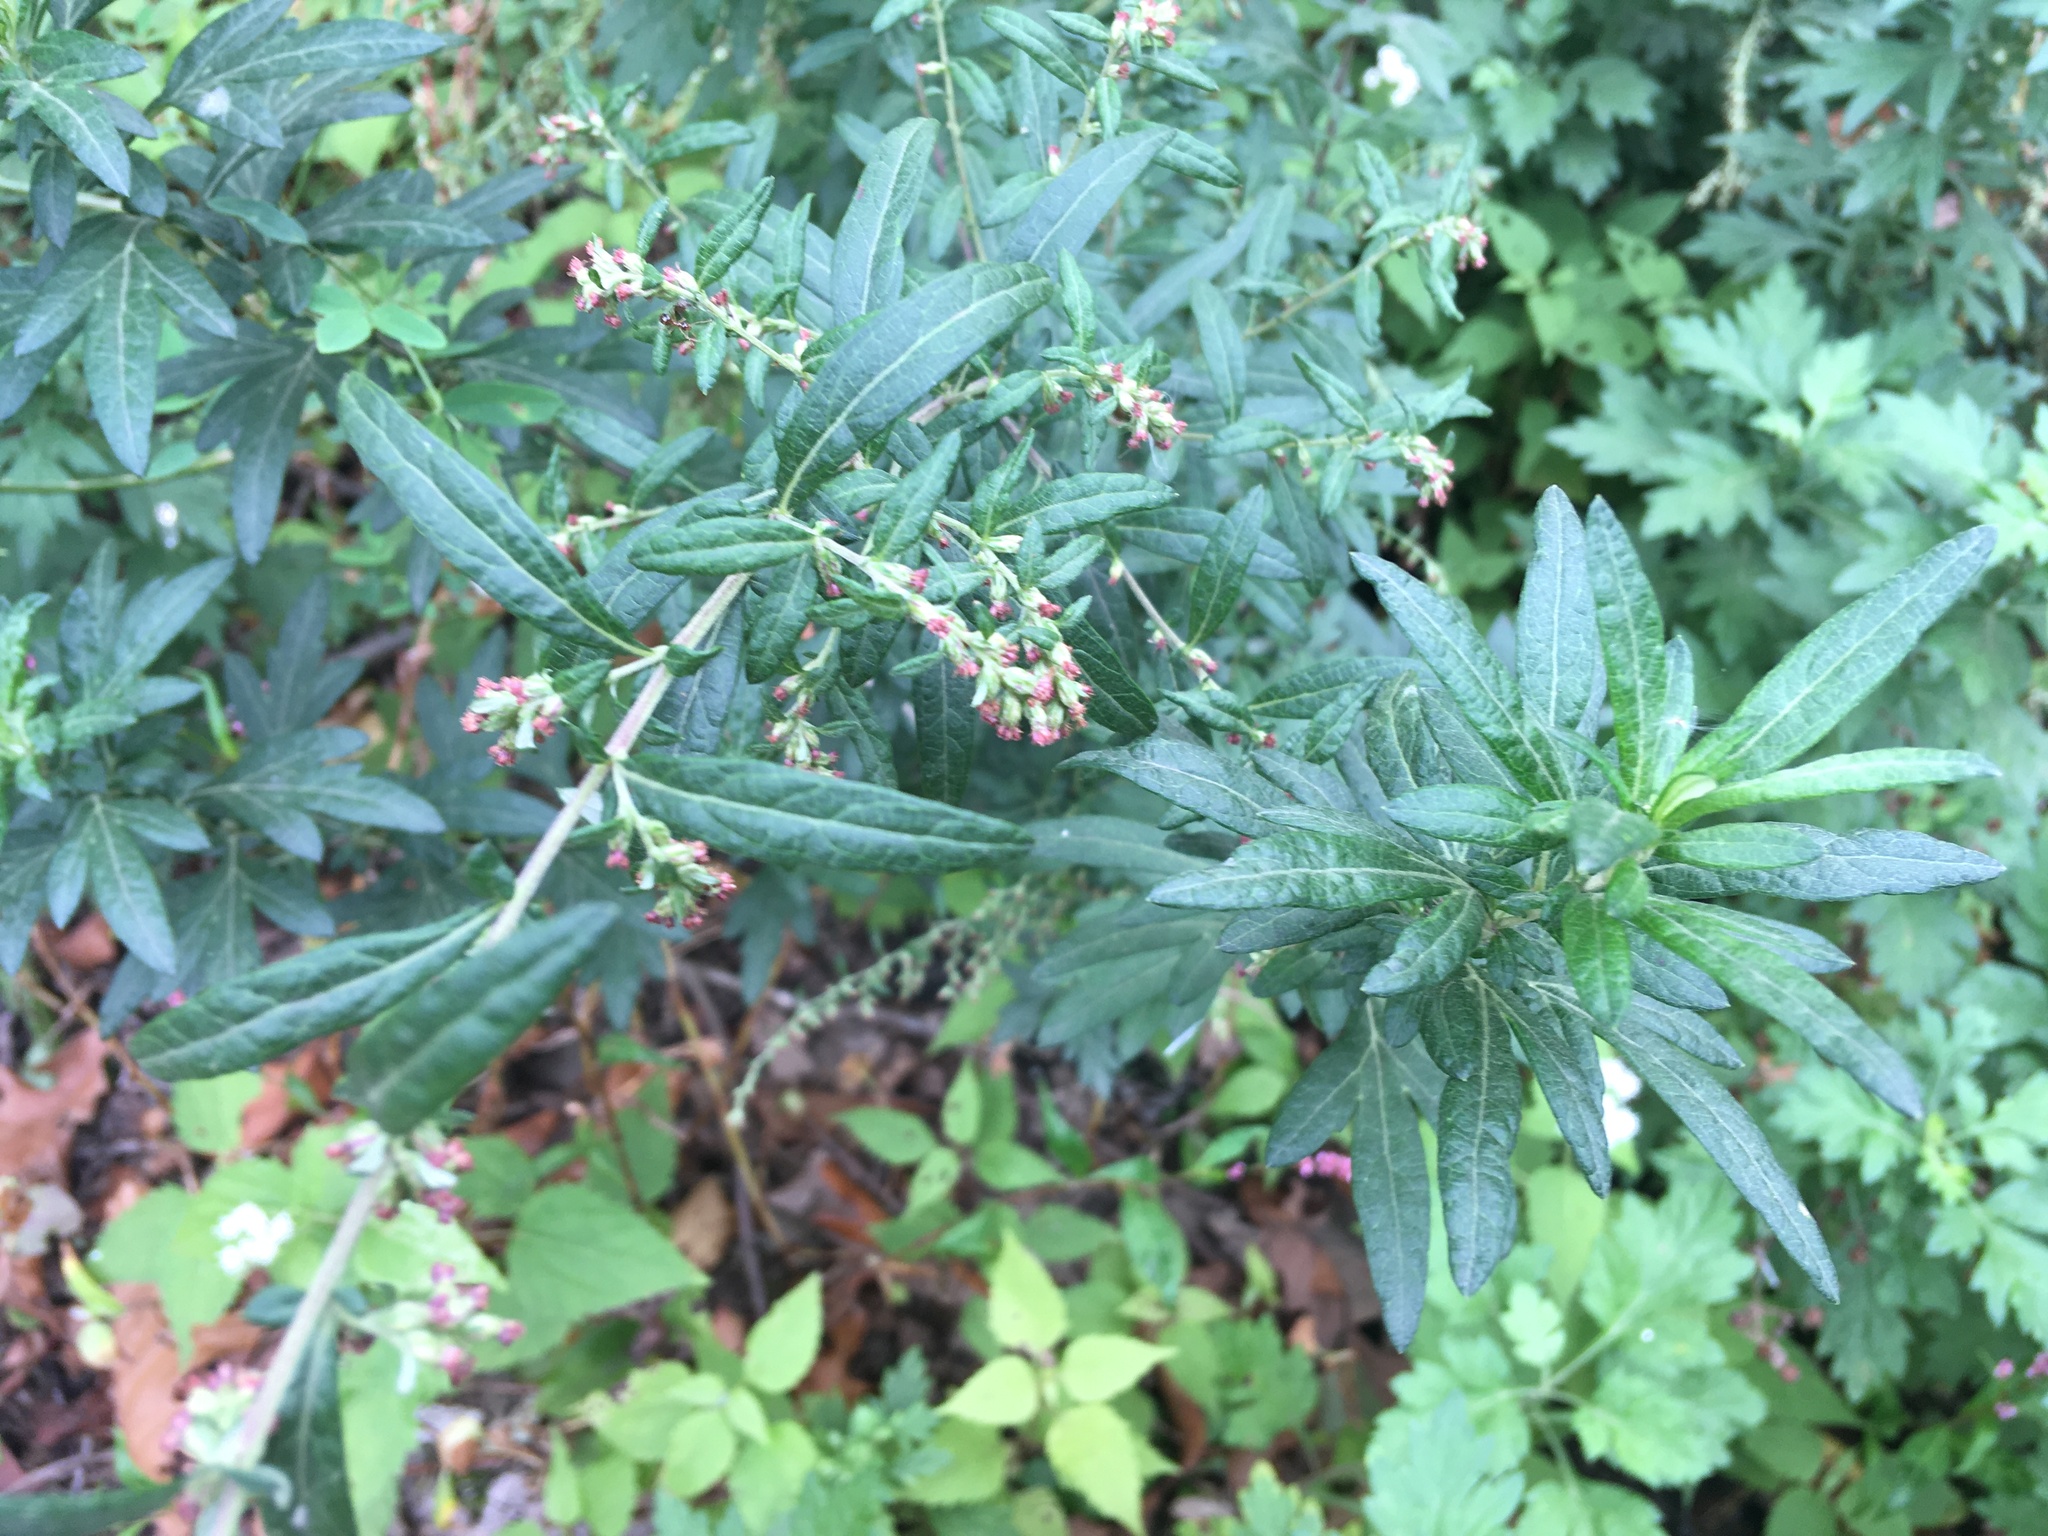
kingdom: Plantae
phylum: Tracheophyta
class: Magnoliopsida
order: Asterales
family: Asteraceae
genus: Artemisia
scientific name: Artemisia vulgaris
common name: Mugwort
